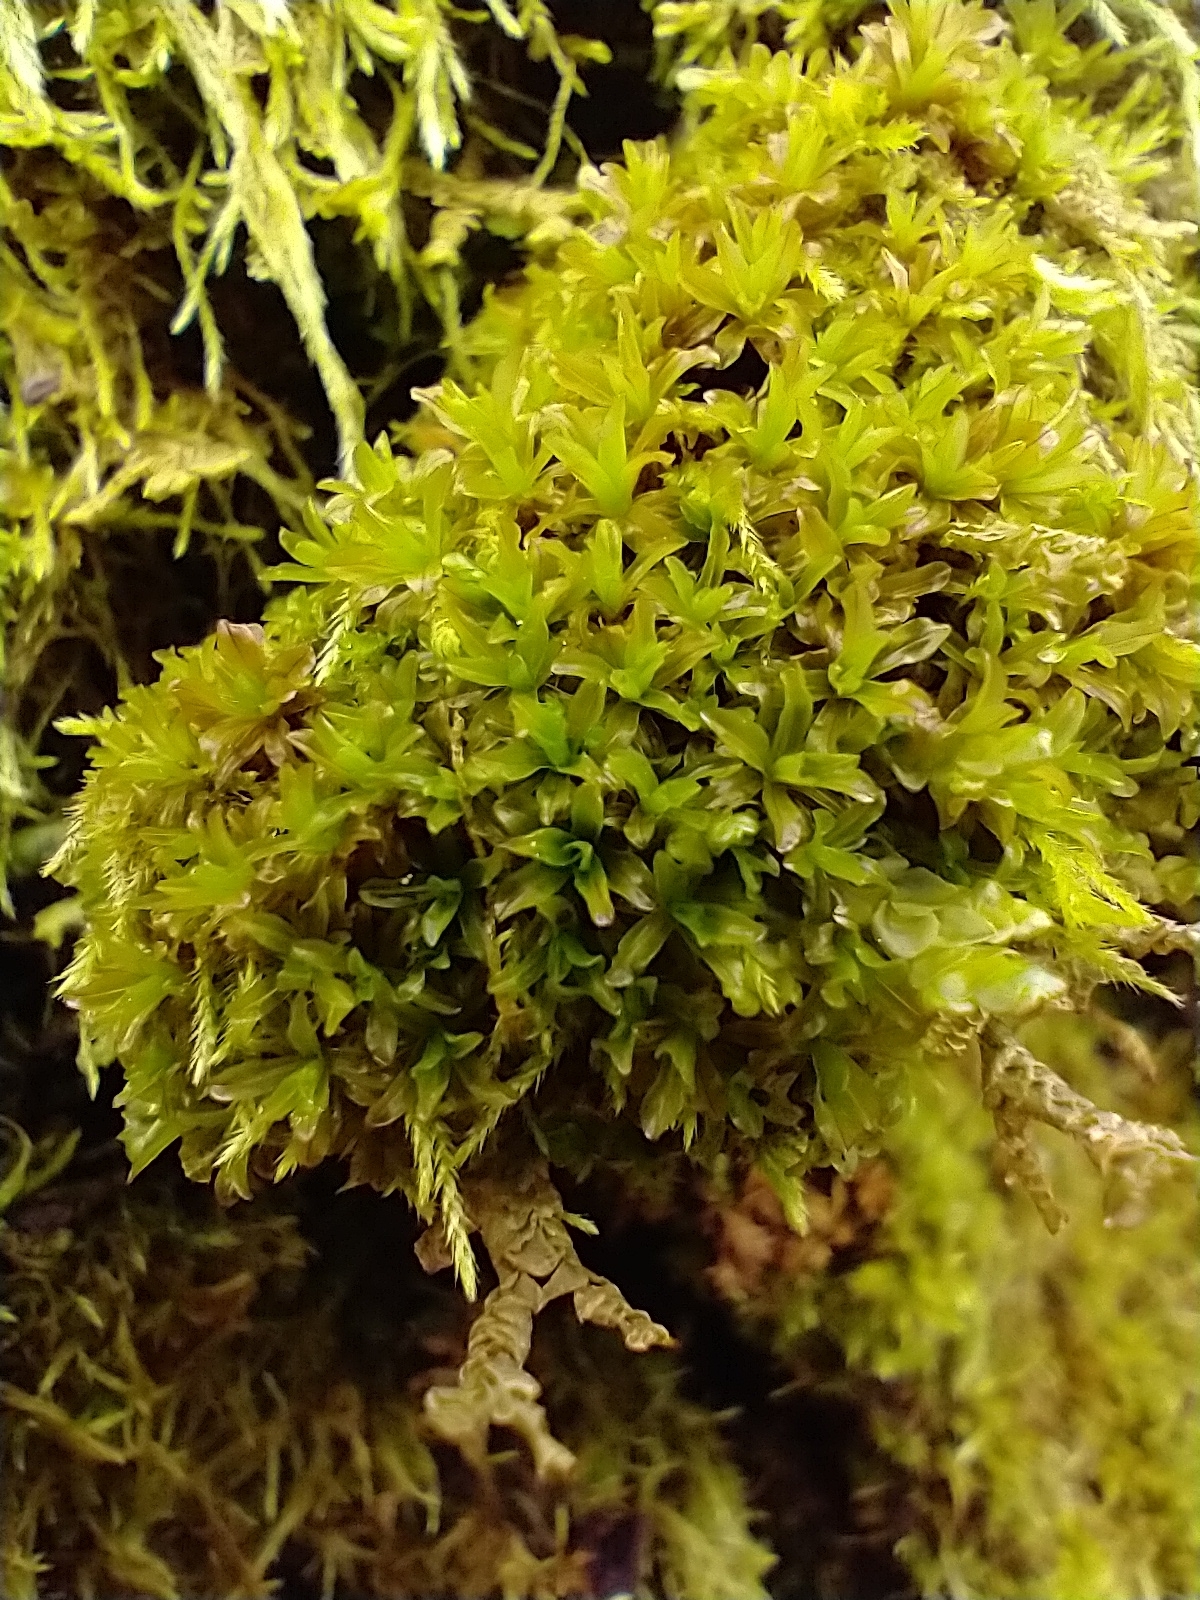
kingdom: Plantae
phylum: Bryophyta
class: Bryopsida
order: Pottiales
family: Pottiaceae
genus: Syntrichia
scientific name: Syntrichia latifolia
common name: Water screw-moss
